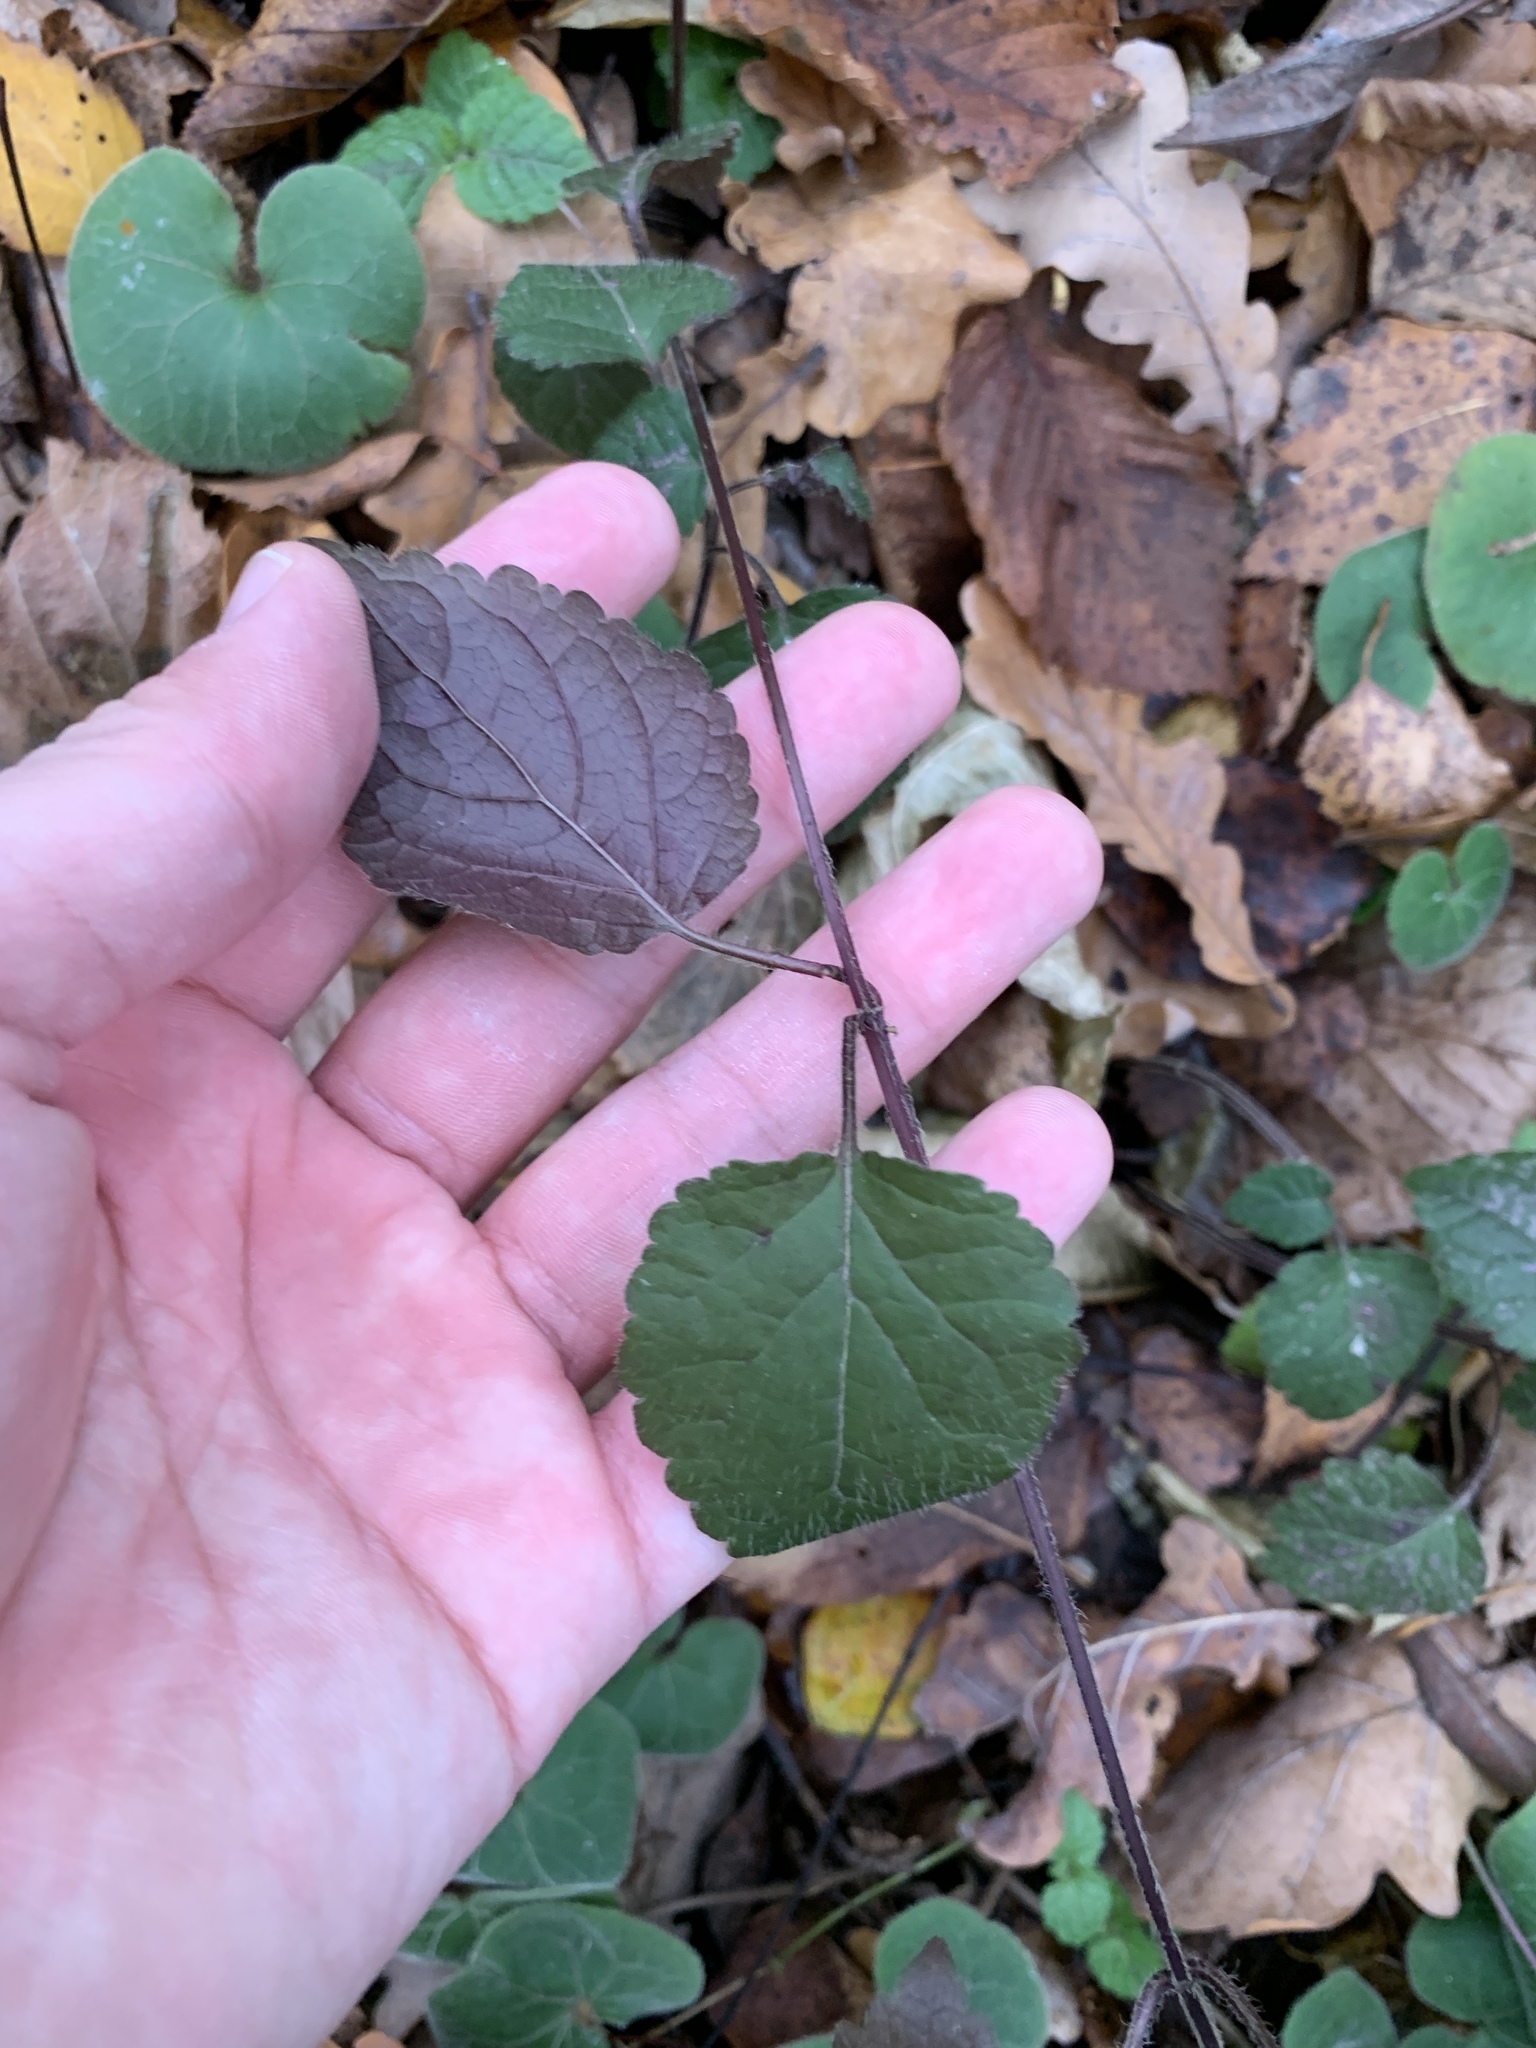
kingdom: Plantae
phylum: Tracheophyta
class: Magnoliopsida
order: Lamiales
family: Lamiaceae
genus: Lamium
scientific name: Lamium galeobdolon
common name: Yellow archangel
